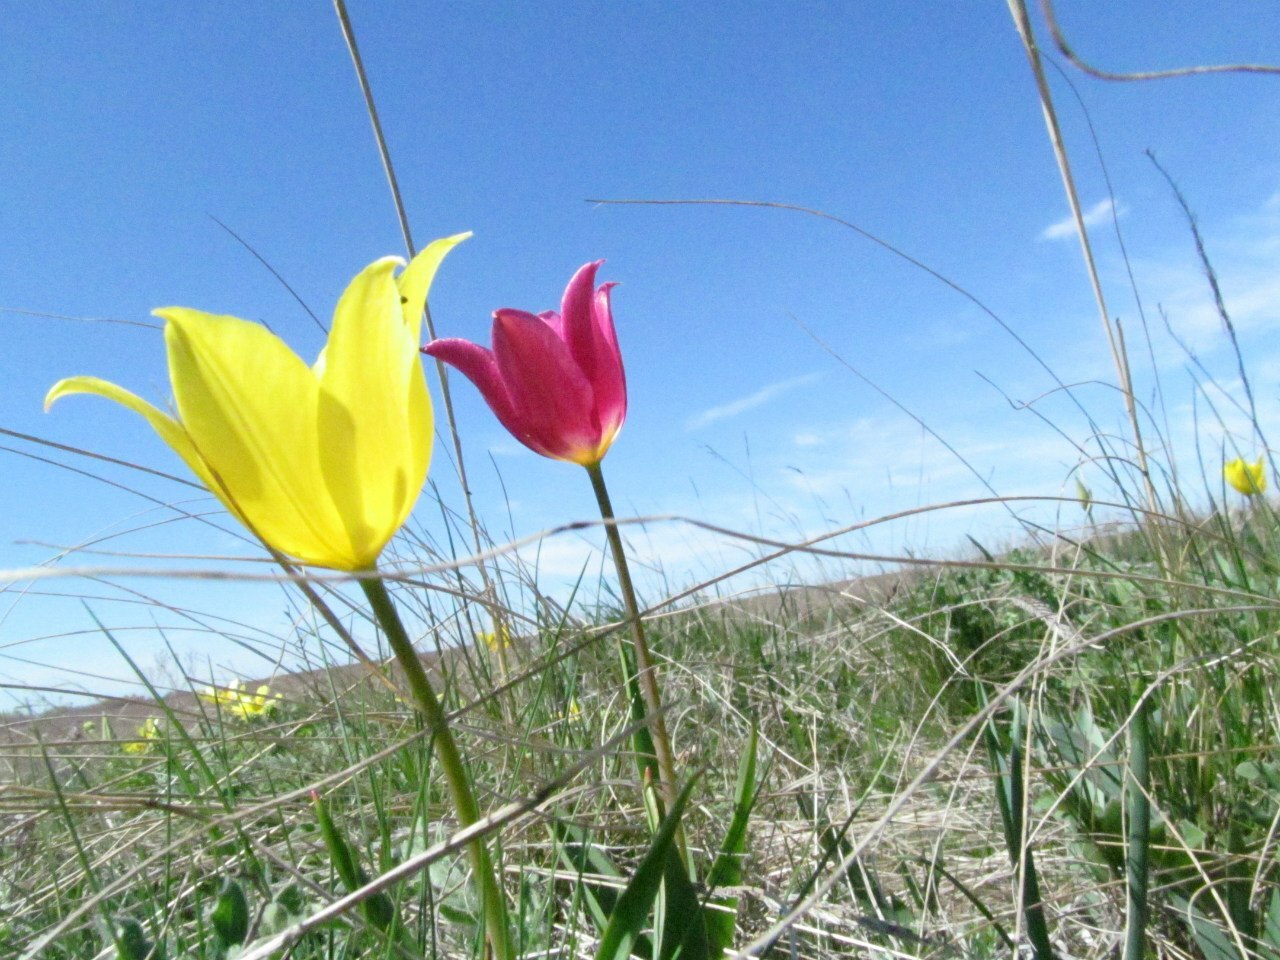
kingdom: Plantae
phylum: Tracheophyta
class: Liliopsida
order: Liliales
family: Liliaceae
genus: Tulipa
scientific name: Tulipa suaveolens
